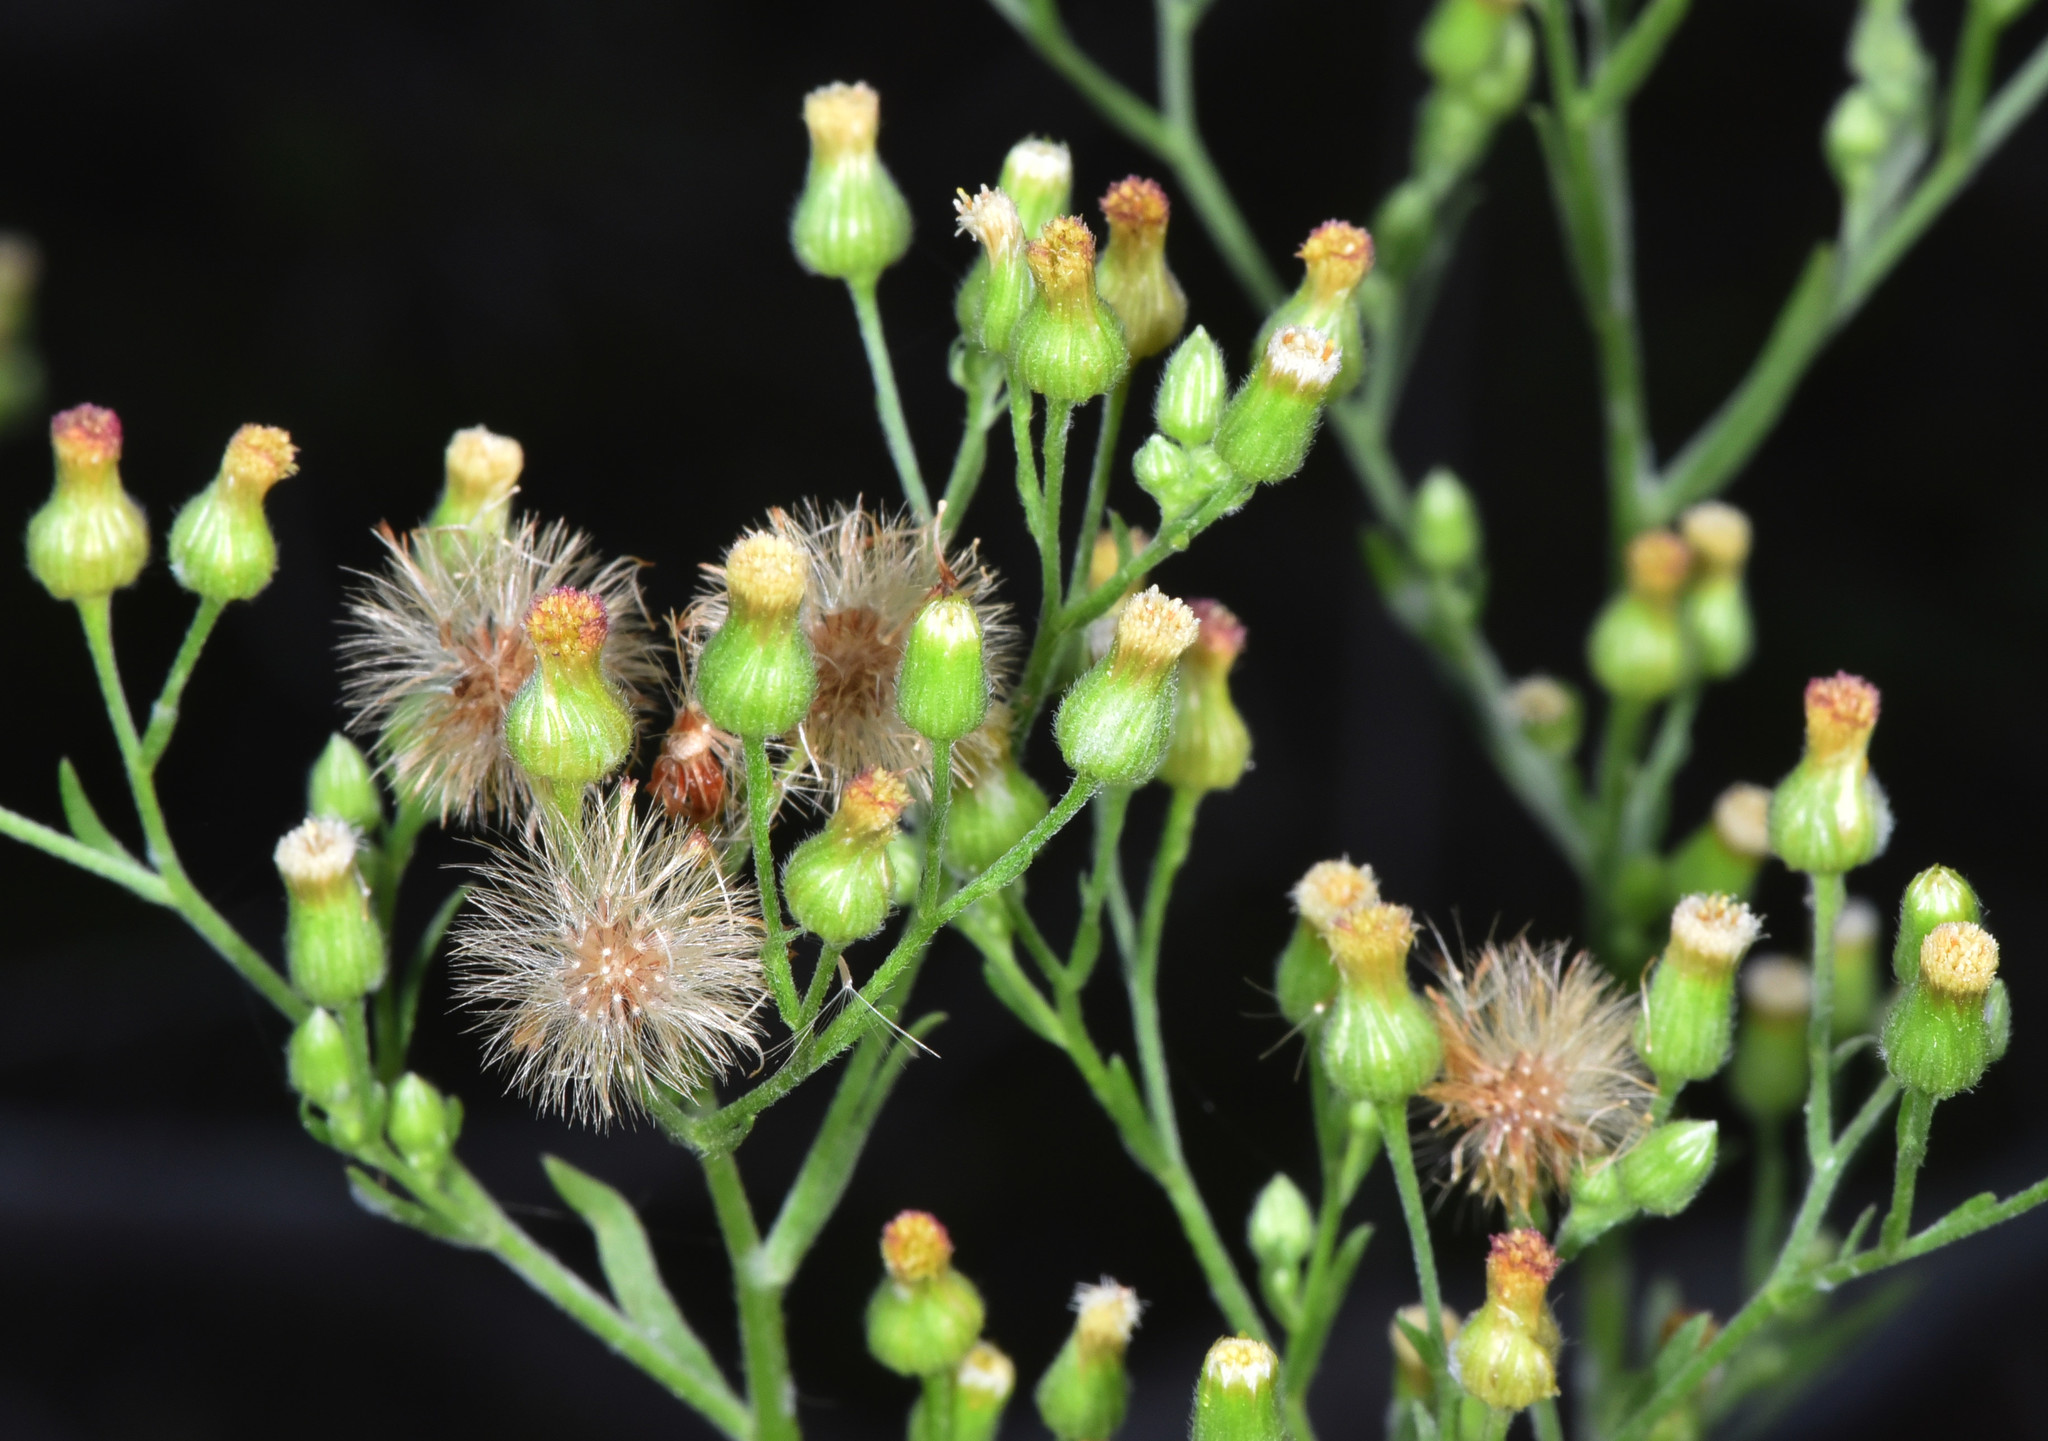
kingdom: Plantae
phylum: Tracheophyta
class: Magnoliopsida
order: Asterales
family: Asteraceae
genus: Erigeron
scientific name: Erigeron sumatrensis
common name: Daisy
